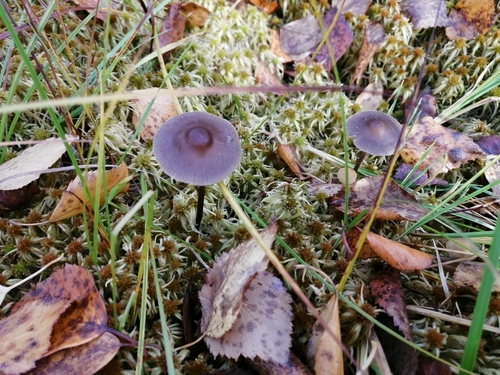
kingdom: Fungi
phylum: Basidiomycota
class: Agaricomycetes
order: Agaricales
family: Mycenaceae
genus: Mycena
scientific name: Mycena megaspora
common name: Rooting bonnet
